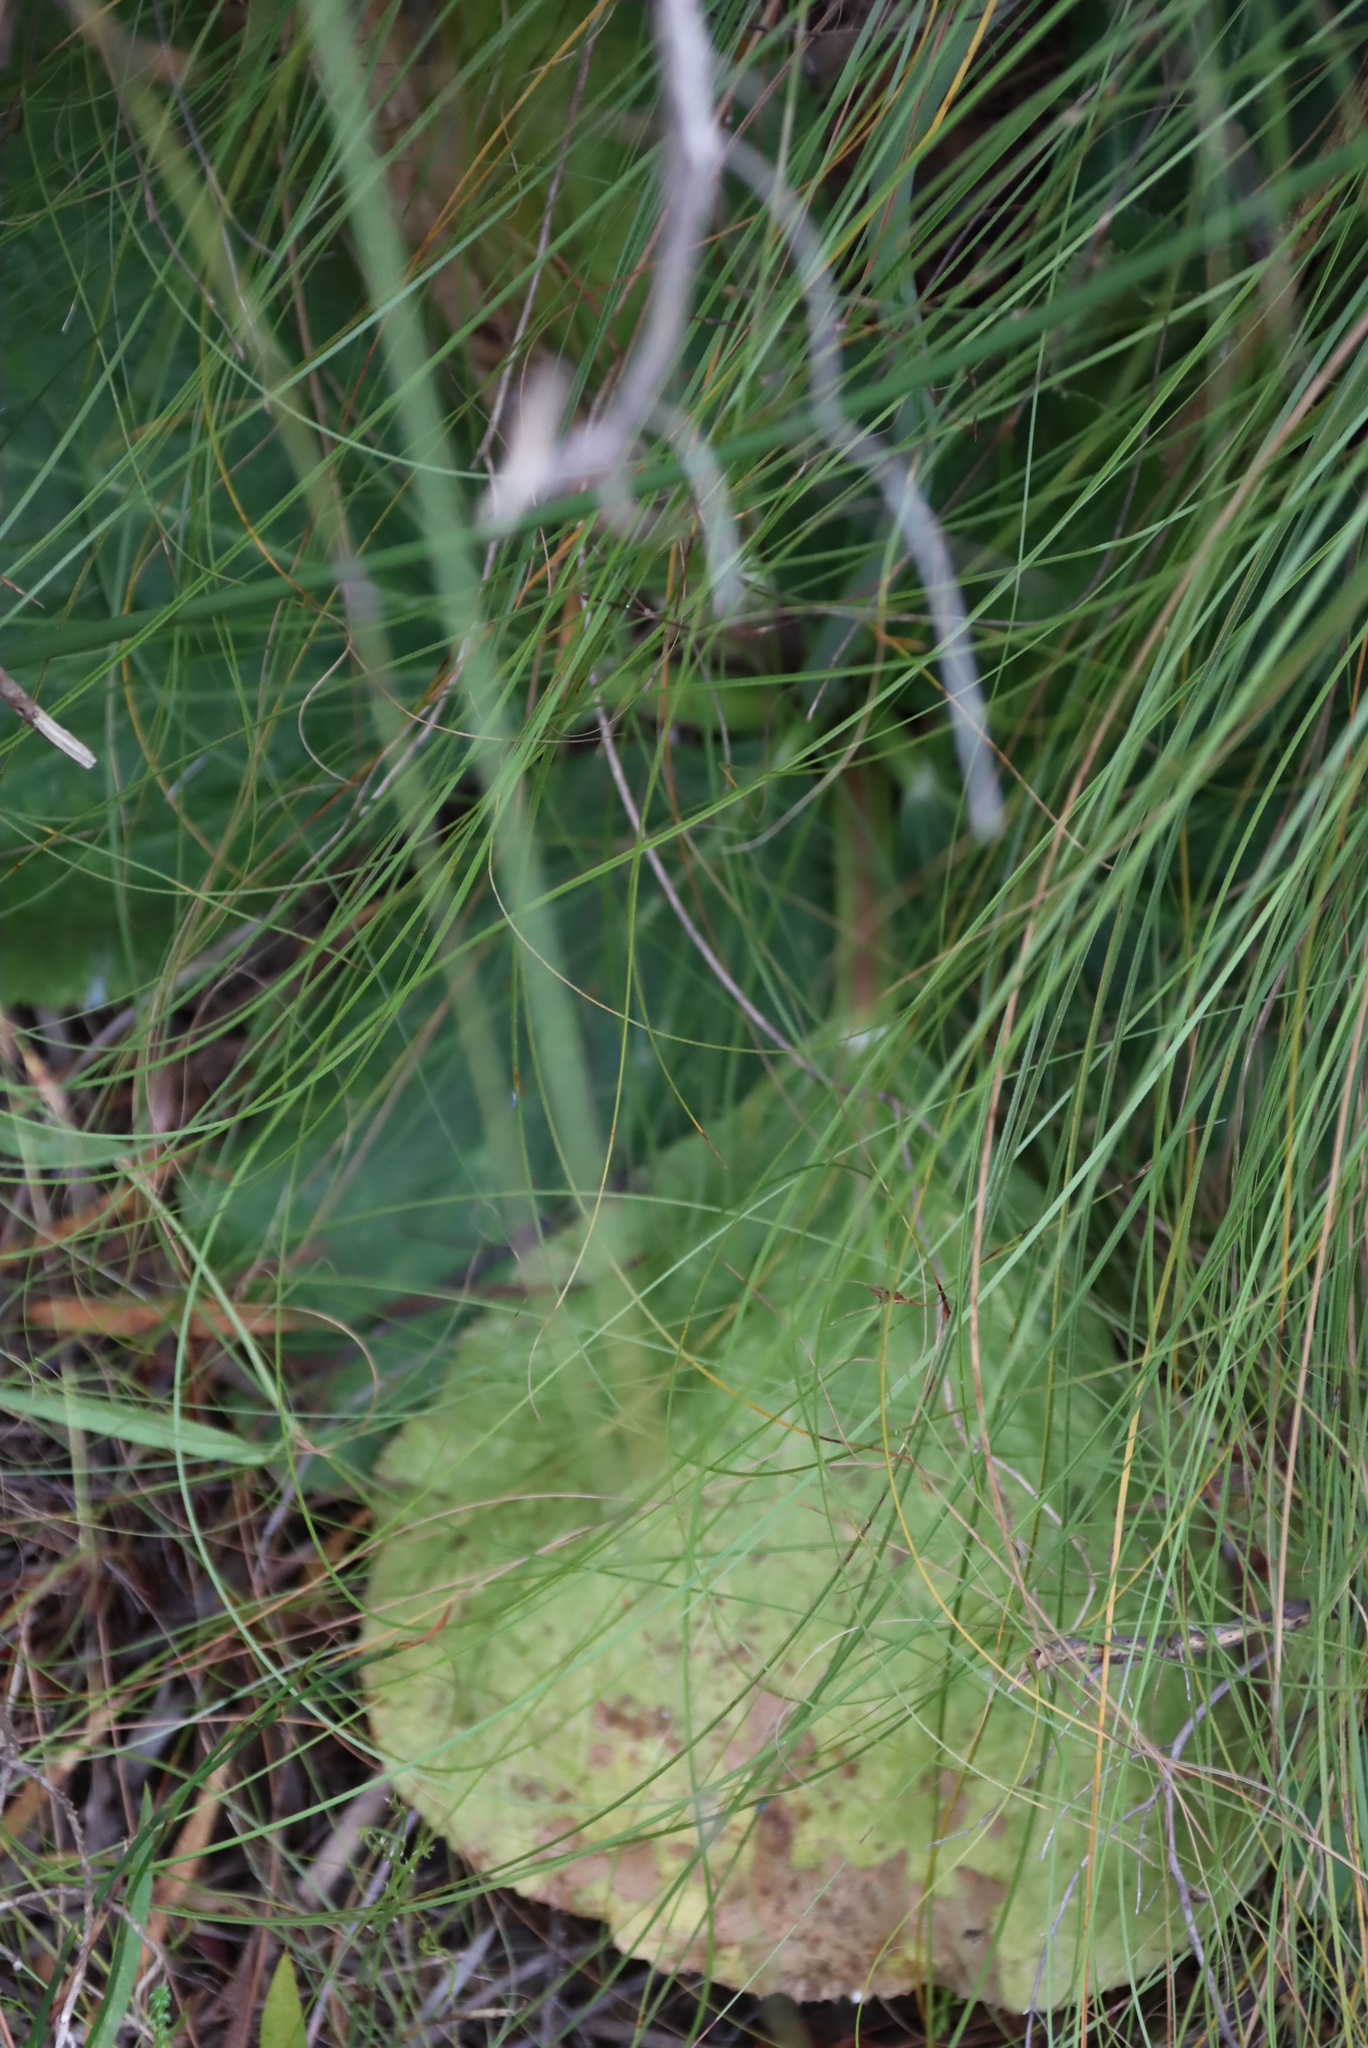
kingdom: Plantae
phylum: Tracheophyta
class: Magnoliopsida
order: Apiales
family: Apiaceae
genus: Lichtensteinia
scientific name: Lichtensteinia latifolia
